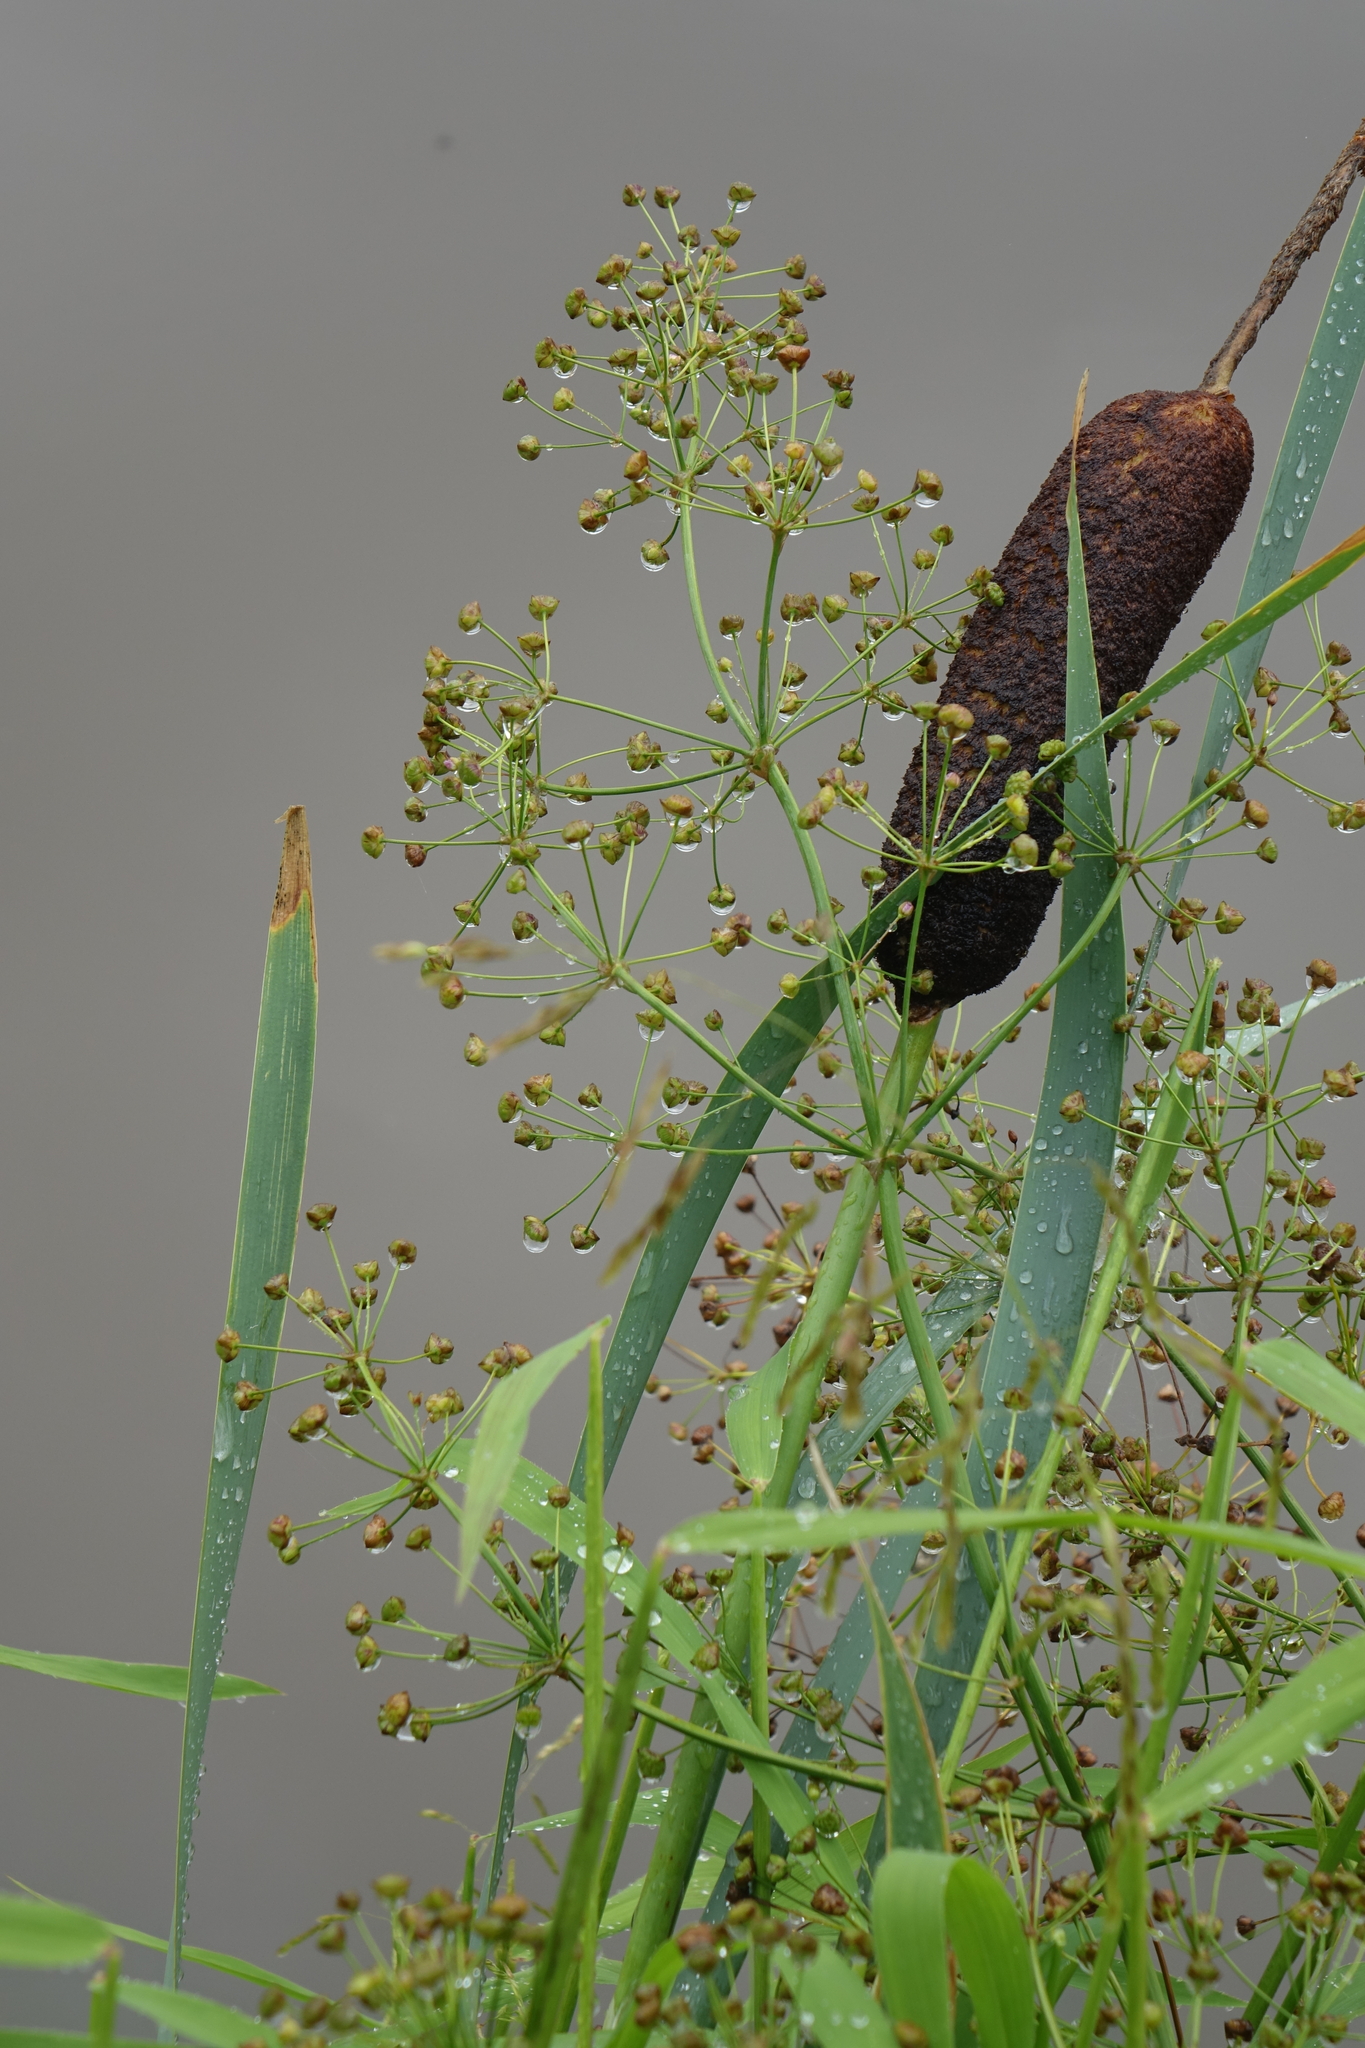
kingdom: Plantae
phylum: Tracheophyta
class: Liliopsida
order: Alismatales
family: Alismataceae
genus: Alisma
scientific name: Alisma plantago-aquatica
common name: Water-plantain
